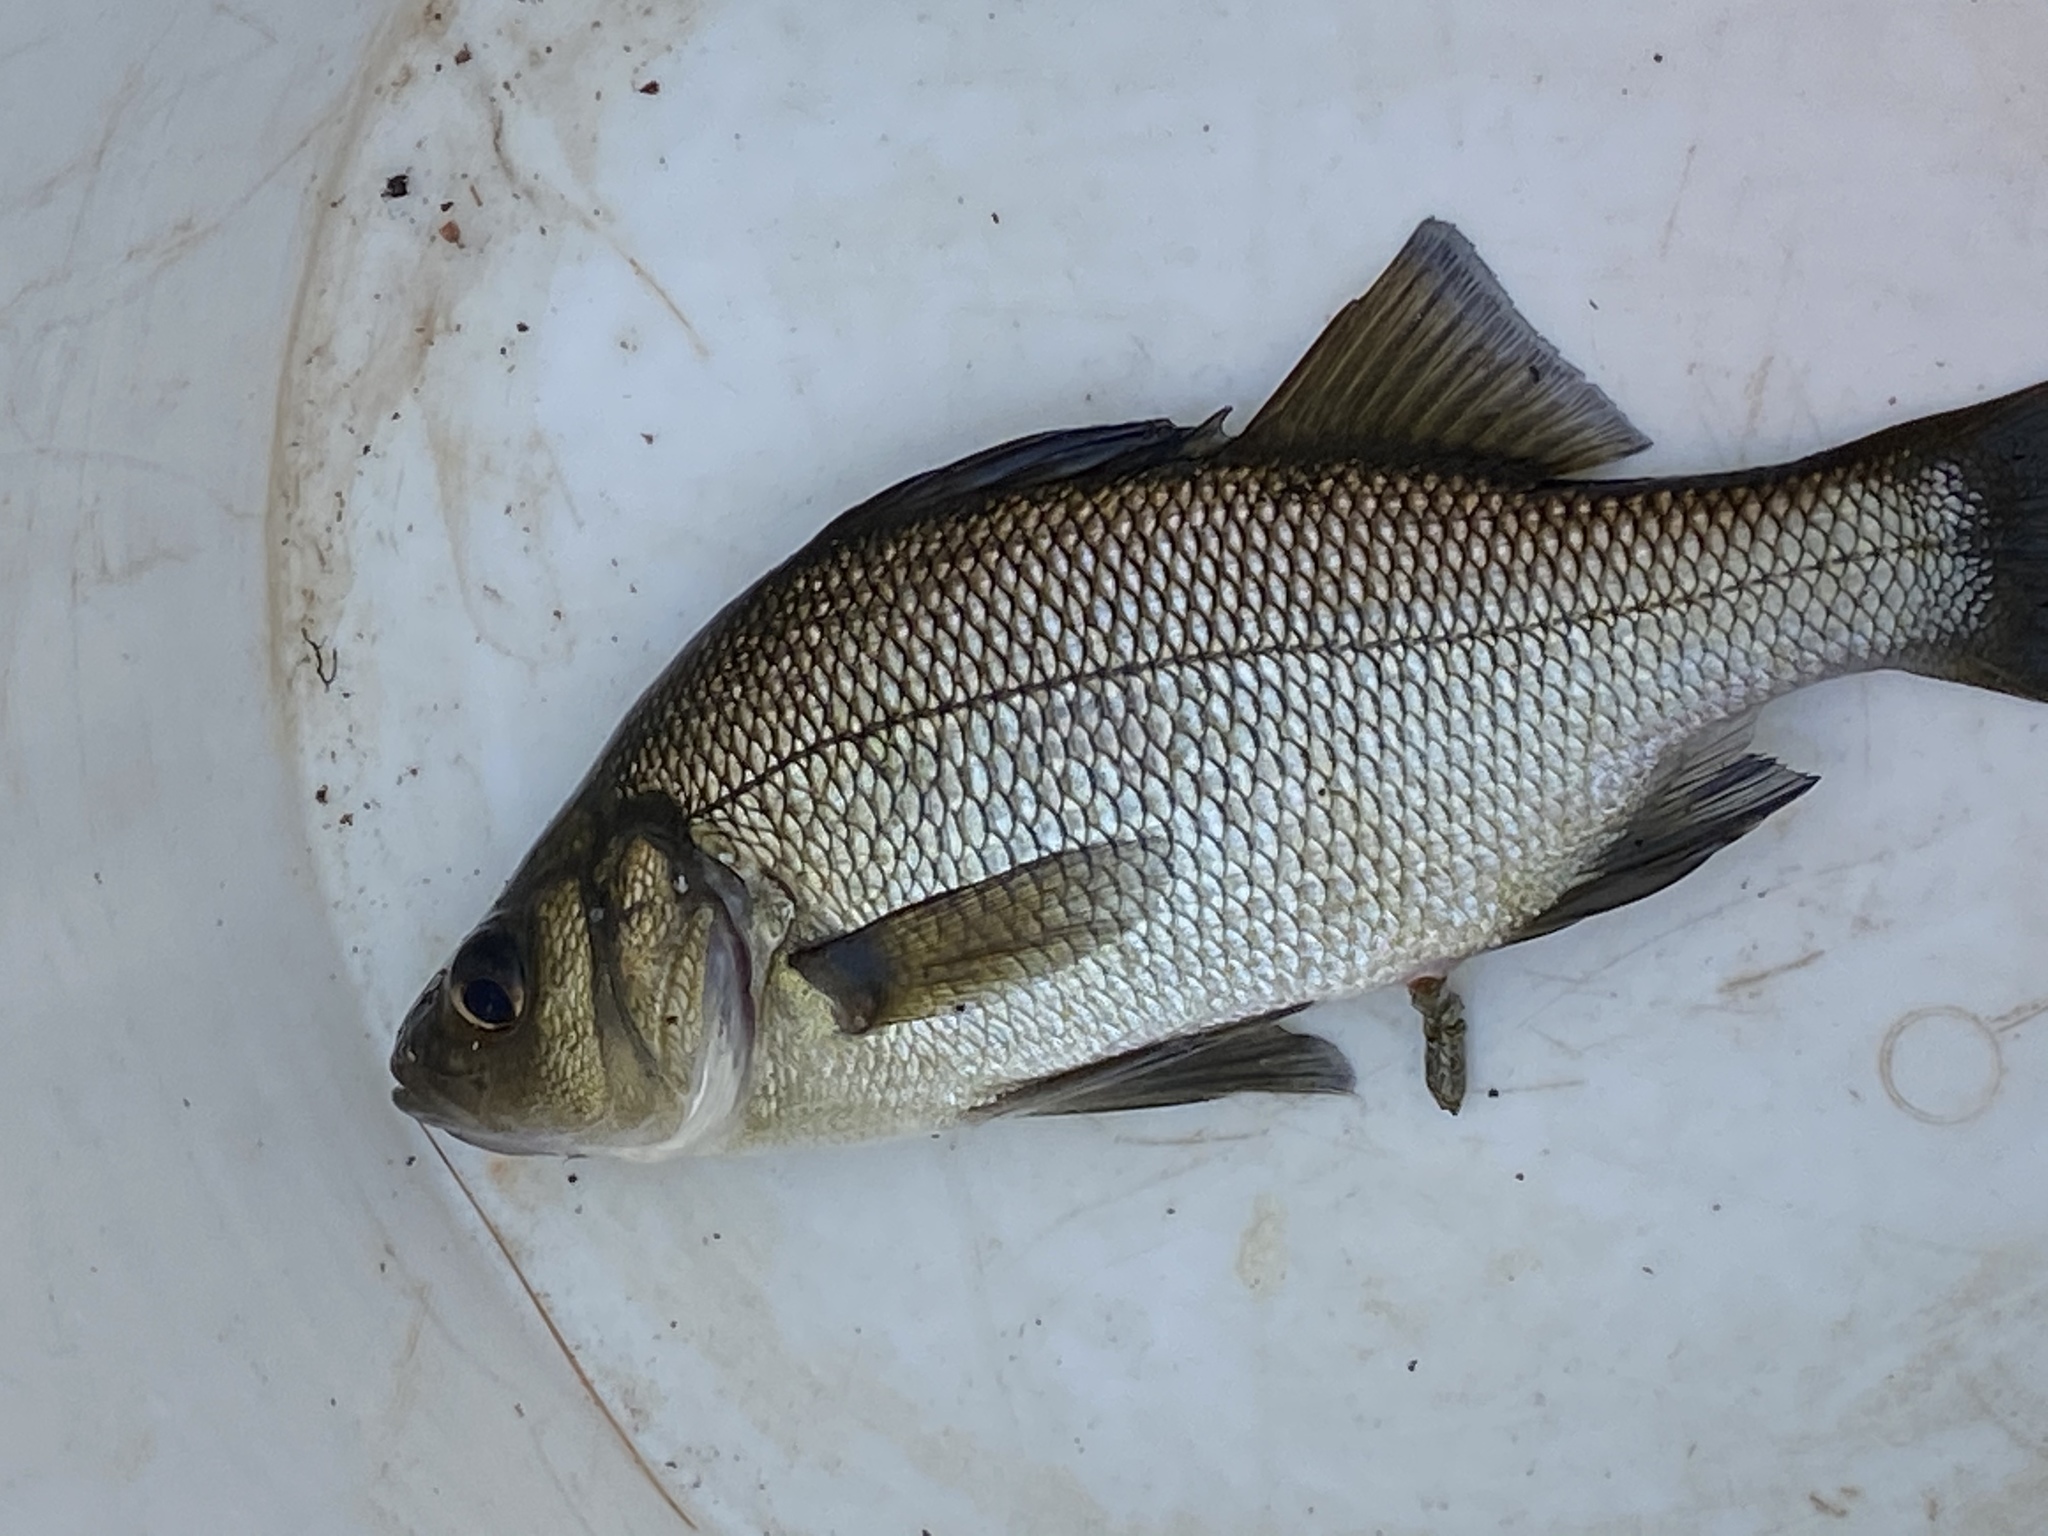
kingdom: Animalia
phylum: Chordata
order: Perciformes
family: Moronidae
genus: Morone
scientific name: Morone americana
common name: White perch
